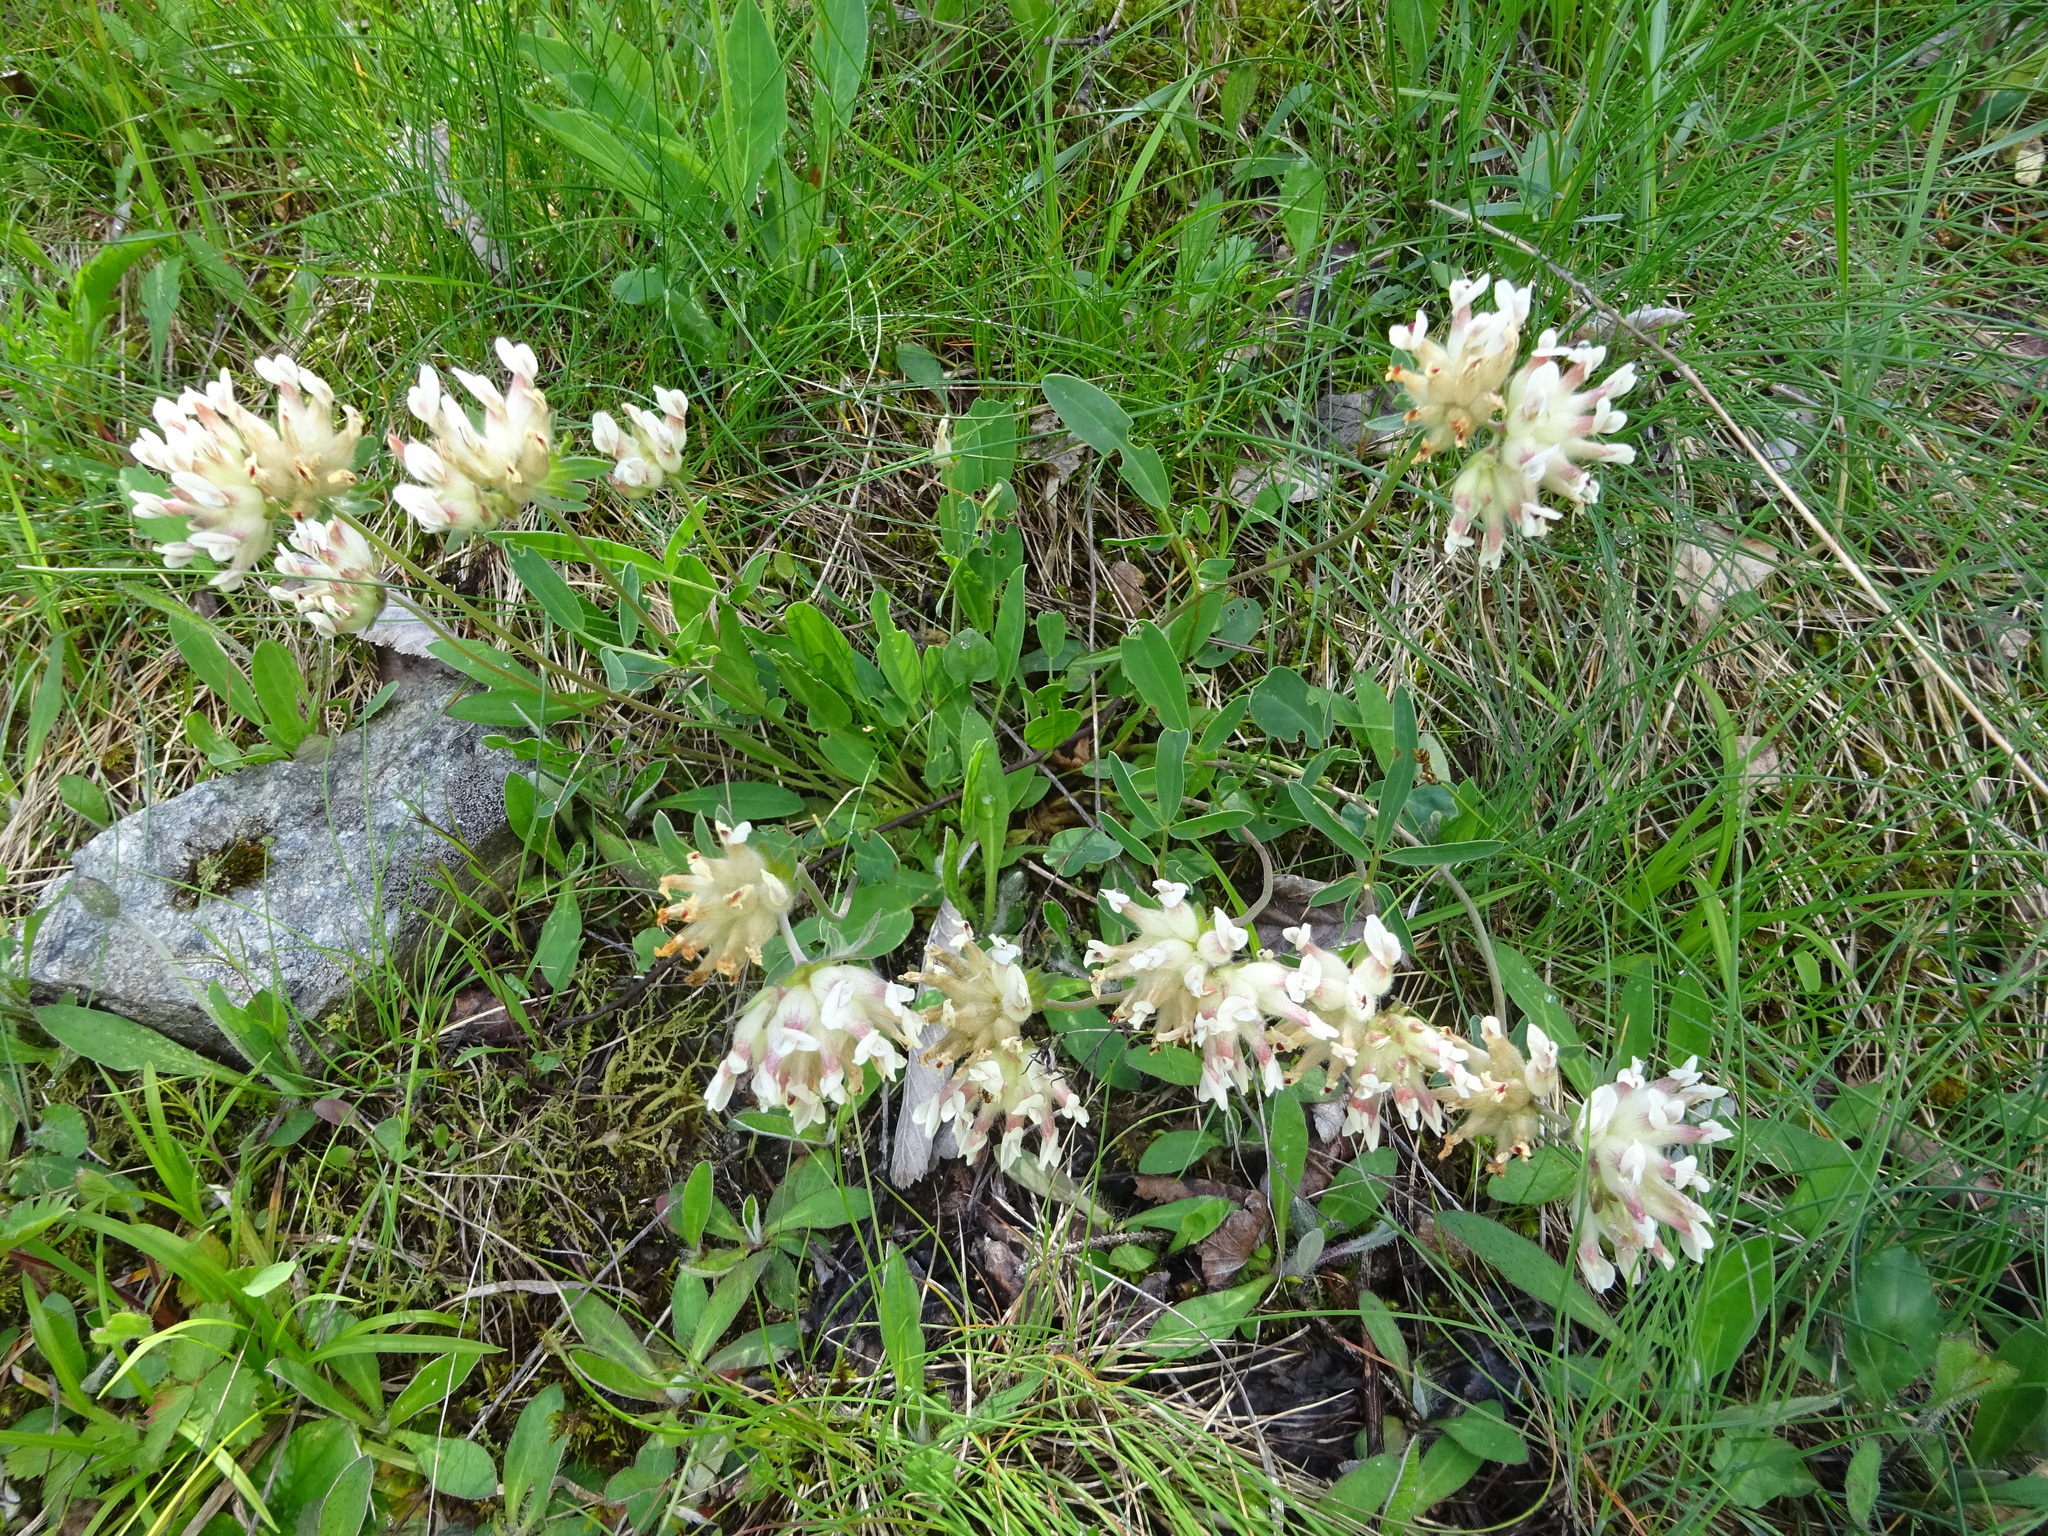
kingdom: Plantae
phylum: Tracheophyta
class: Magnoliopsida
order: Fabales
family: Fabaceae
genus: Anthyllis
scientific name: Anthyllis vulneraria
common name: Kidney vetch
